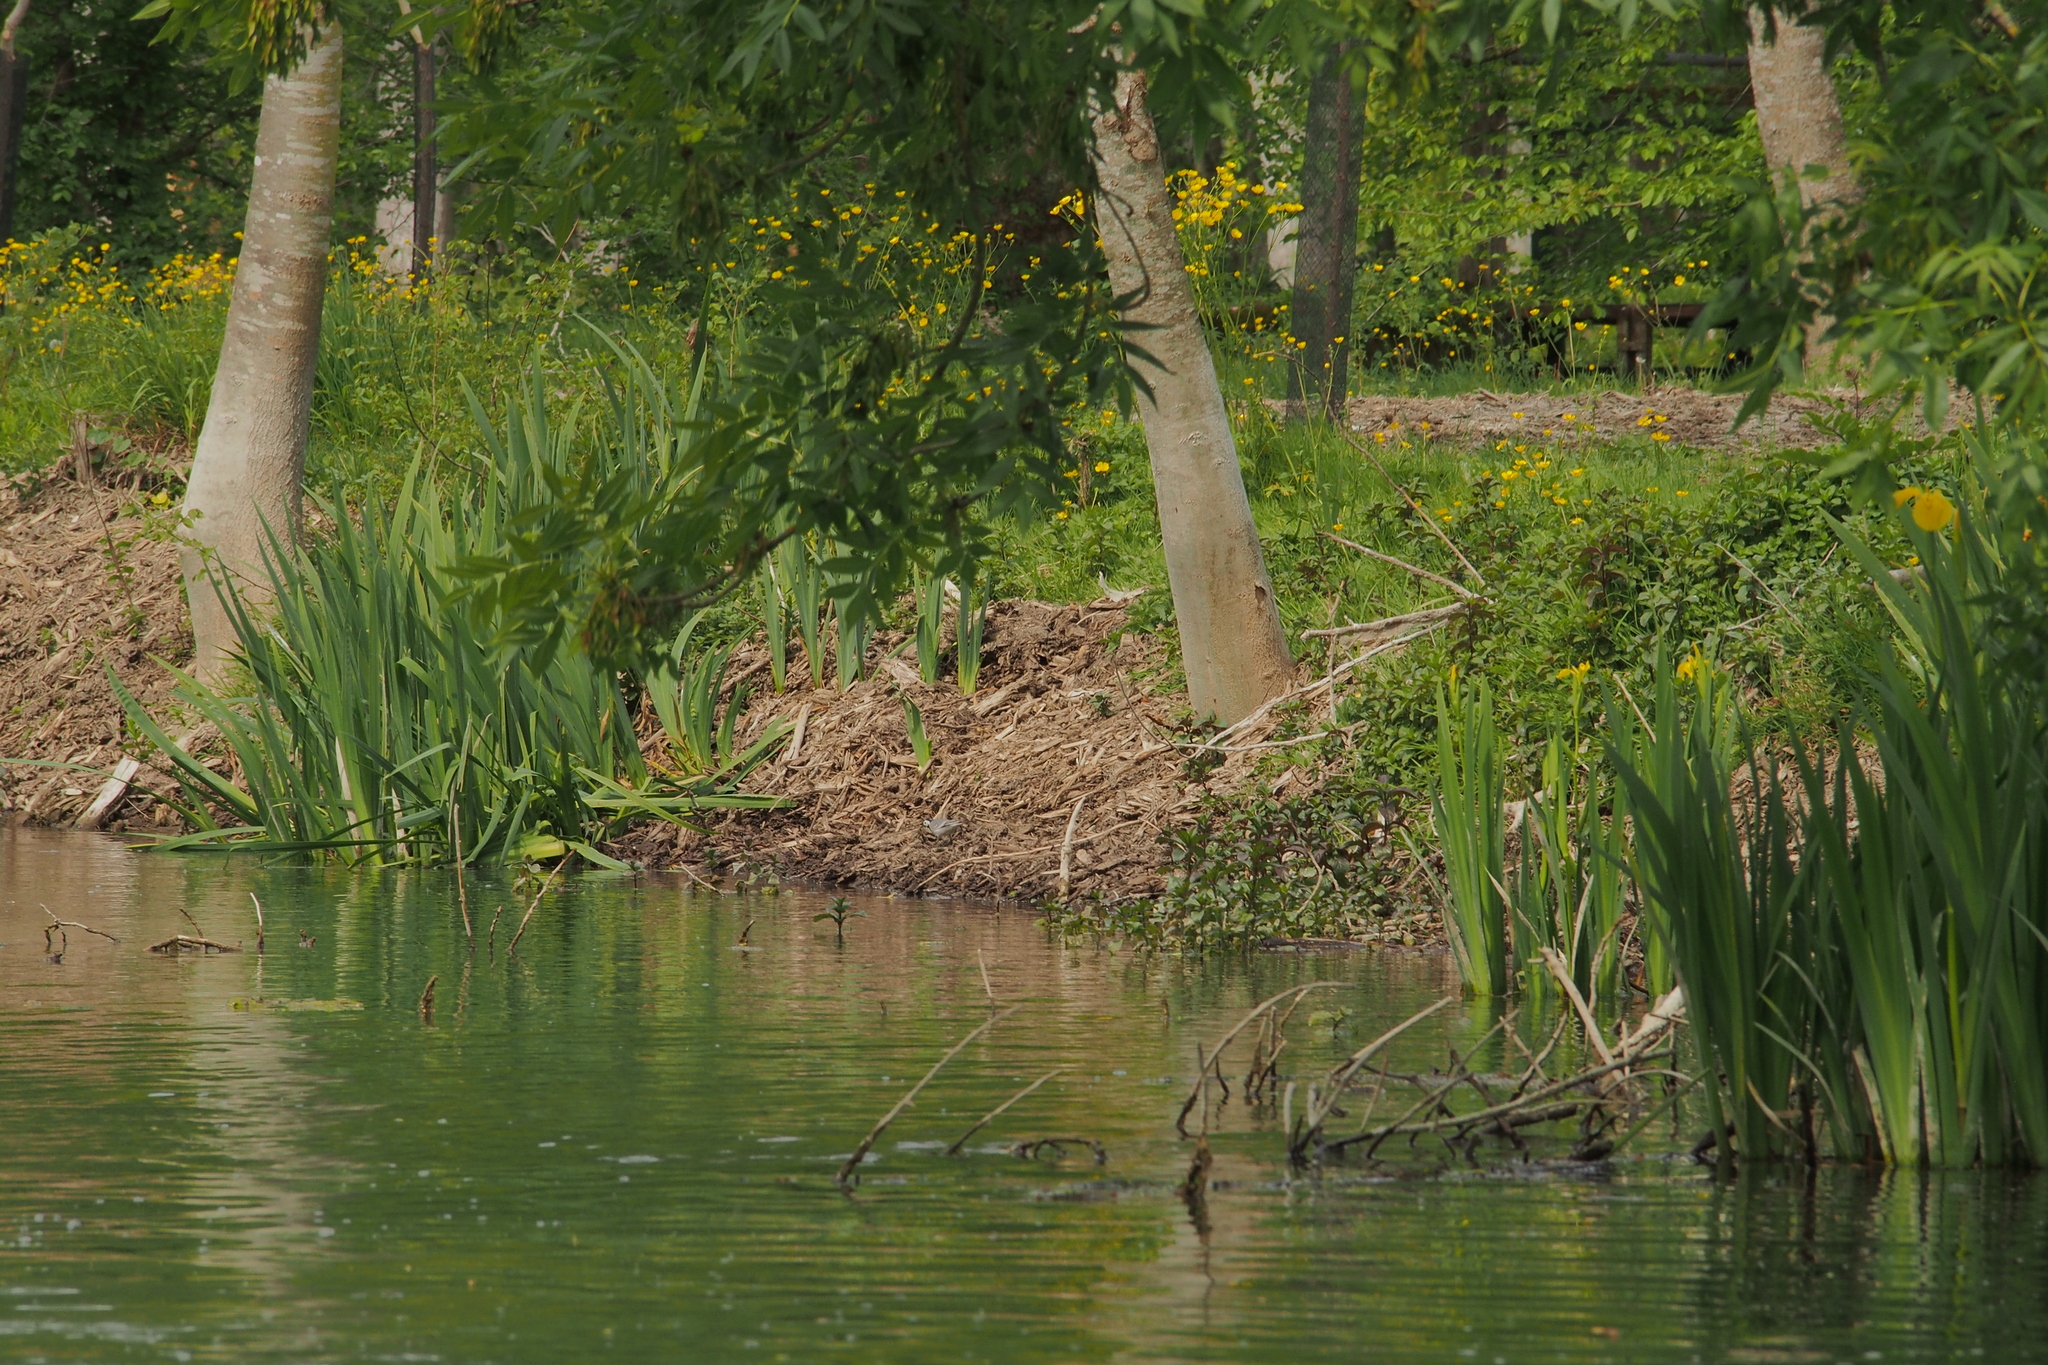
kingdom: Animalia
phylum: Chordata
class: Aves
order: Passeriformes
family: Motacillidae
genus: Motacilla
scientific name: Motacilla alba
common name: White wagtail
